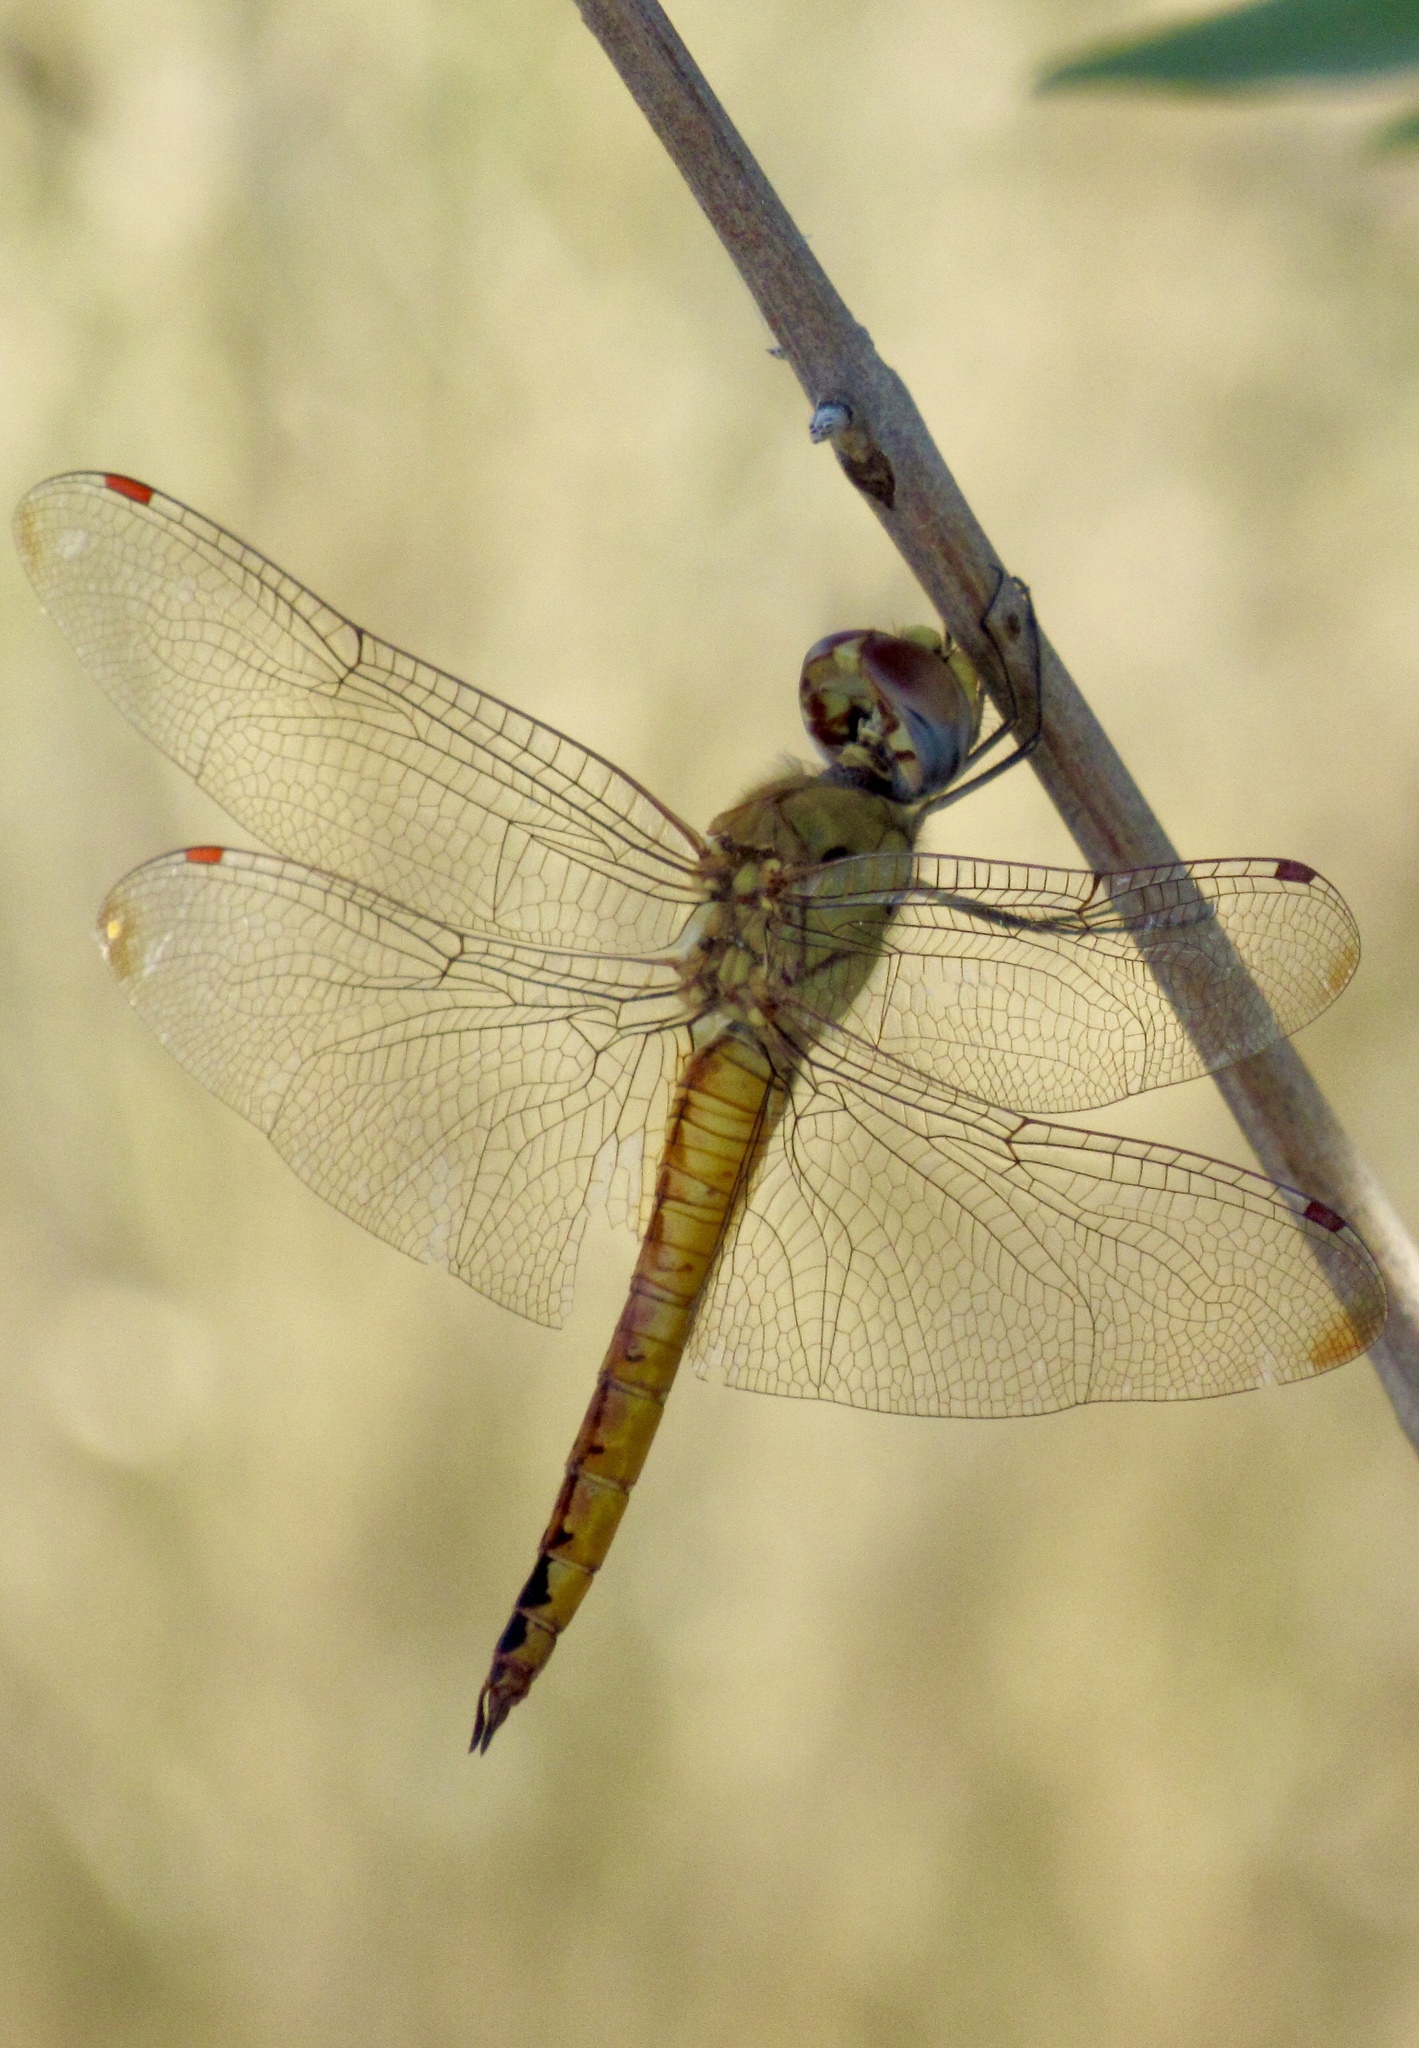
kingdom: Animalia
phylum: Arthropoda
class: Insecta
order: Odonata
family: Libellulidae
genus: Pantala
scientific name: Pantala flavescens
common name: Wandering glider
